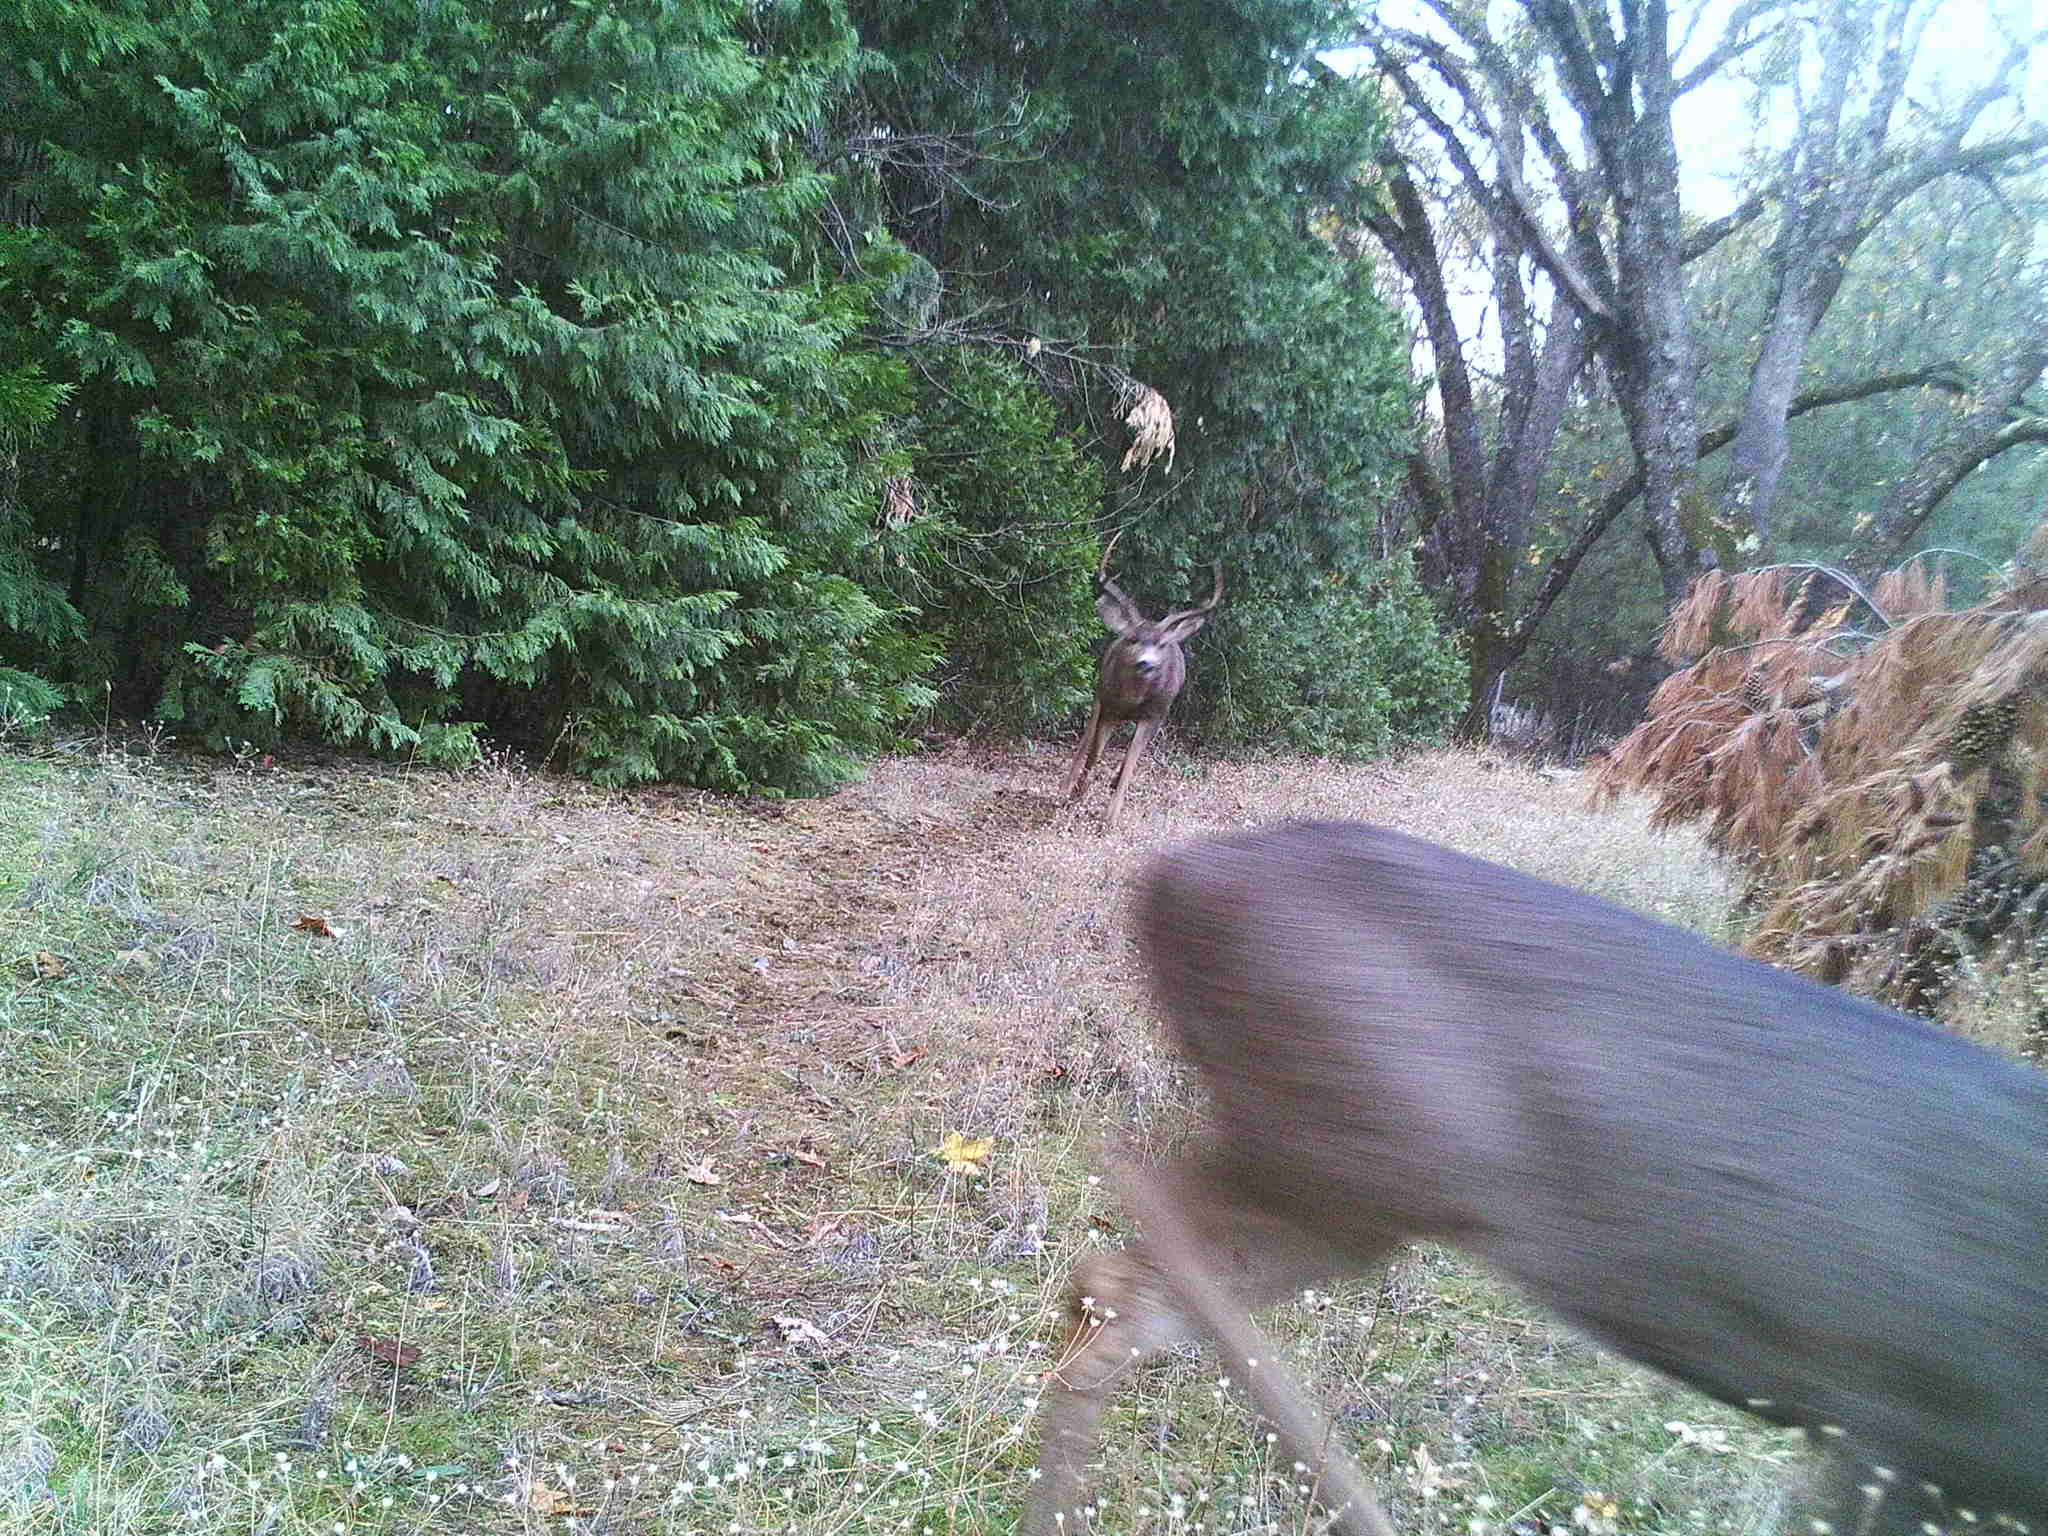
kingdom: Animalia
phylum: Chordata
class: Mammalia
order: Artiodactyla
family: Cervidae
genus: Odocoileus
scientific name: Odocoileus hemionus
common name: Mule deer
